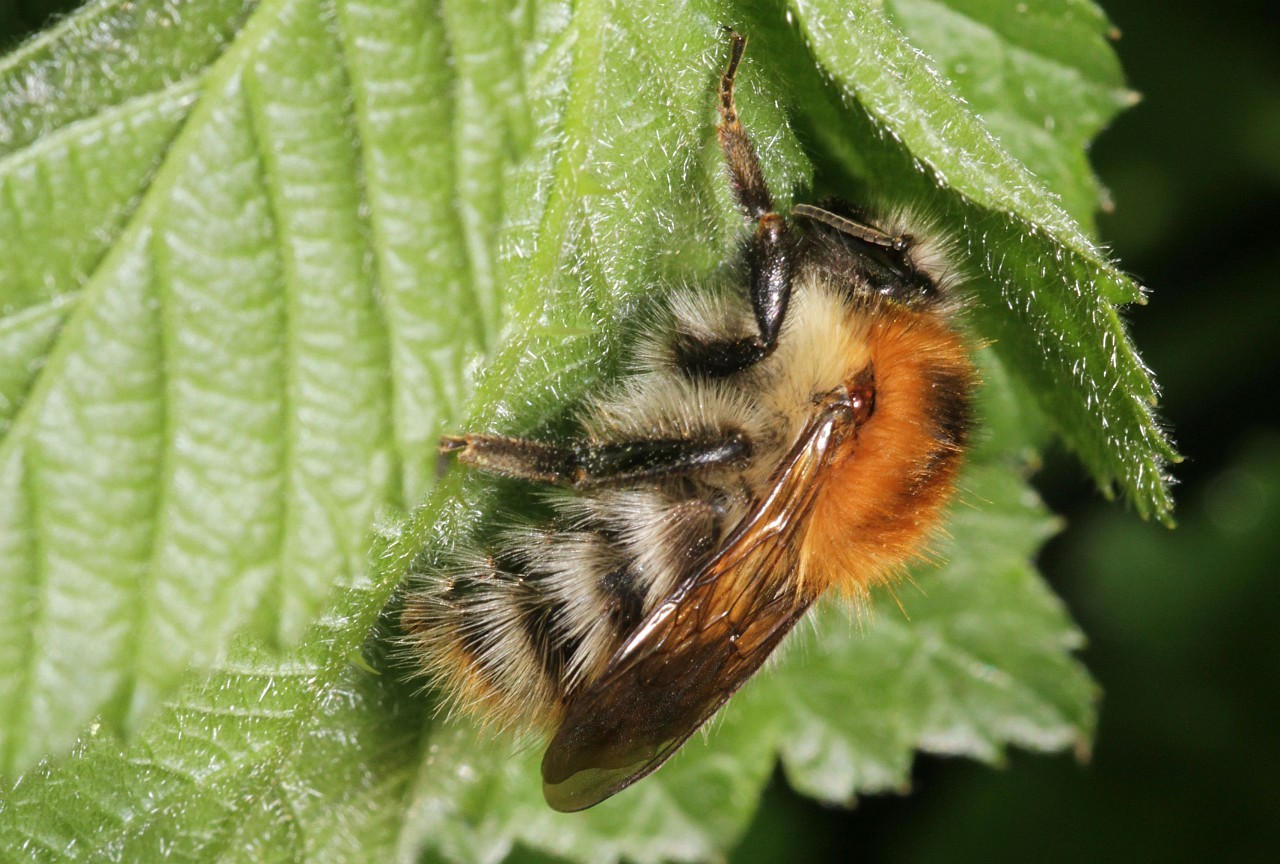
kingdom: Animalia
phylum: Arthropoda
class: Insecta
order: Hymenoptera
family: Apidae
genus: Bombus
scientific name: Bombus pascuorum
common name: Common carder bee
